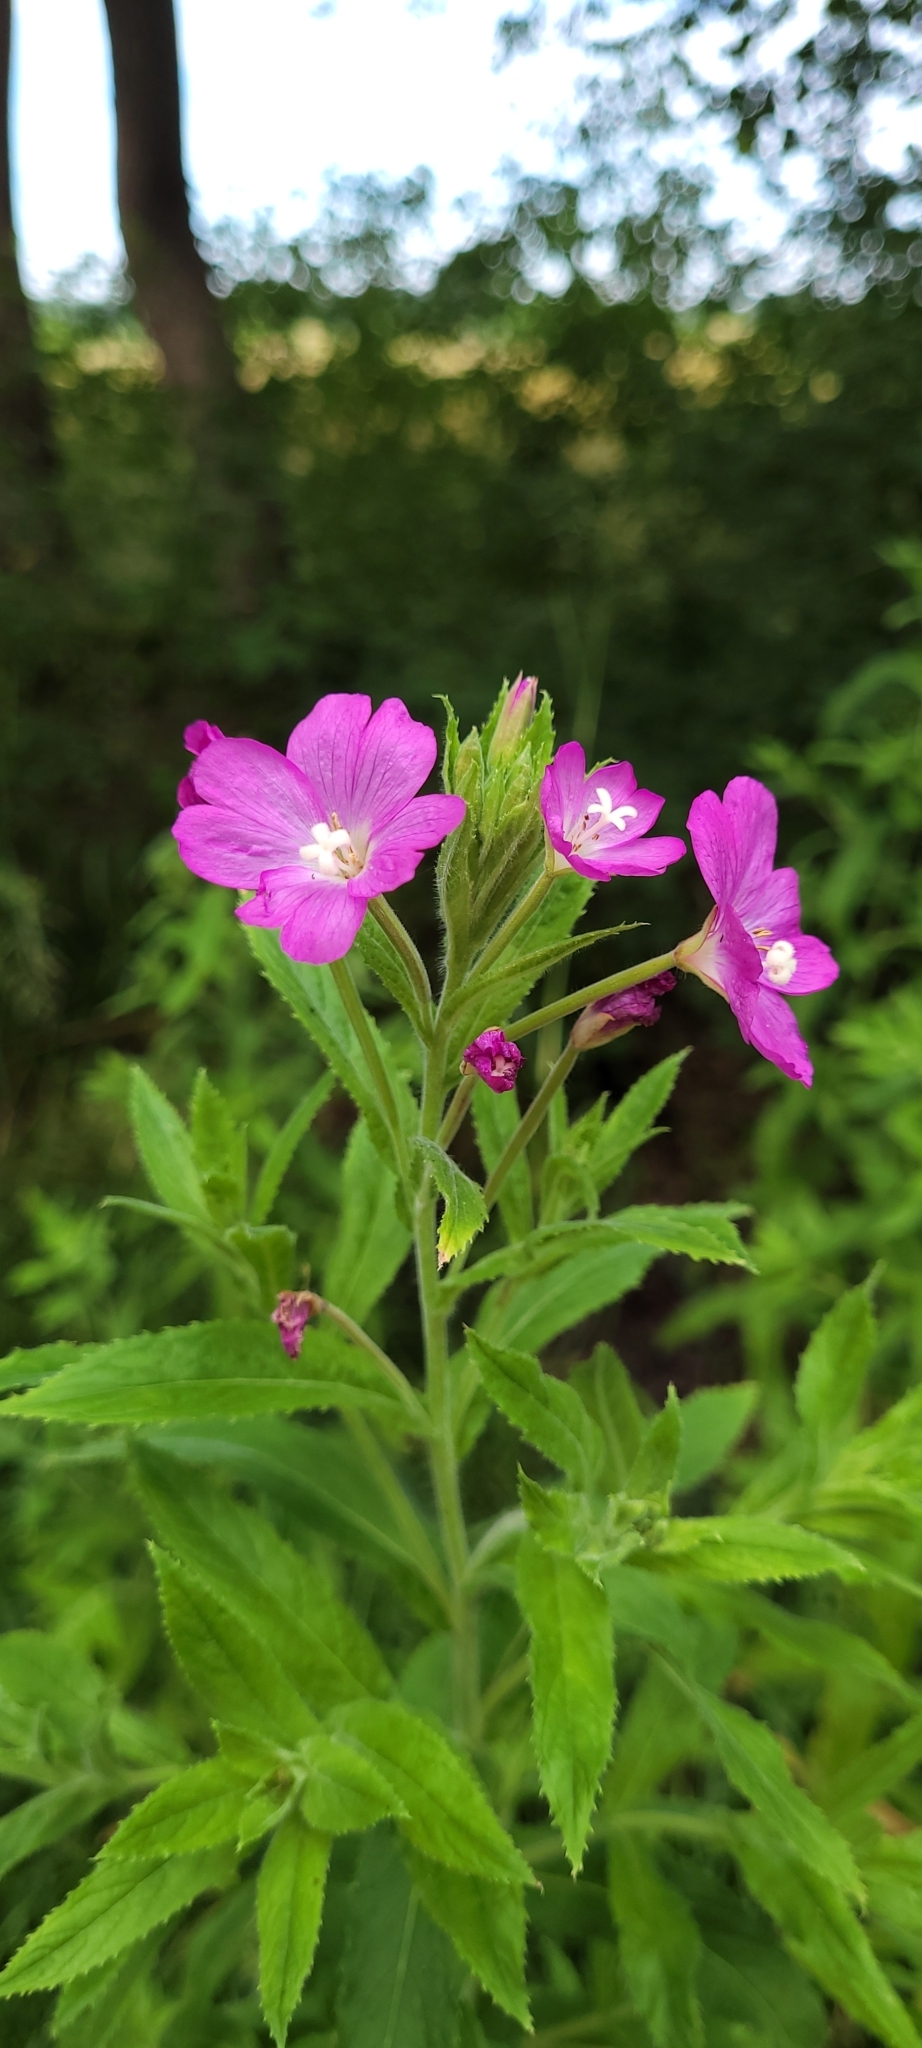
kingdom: Plantae
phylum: Tracheophyta
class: Magnoliopsida
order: Myrtales
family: Onagraceae
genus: Epilobium
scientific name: Epilobium hirsutum
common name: Great willowherb
